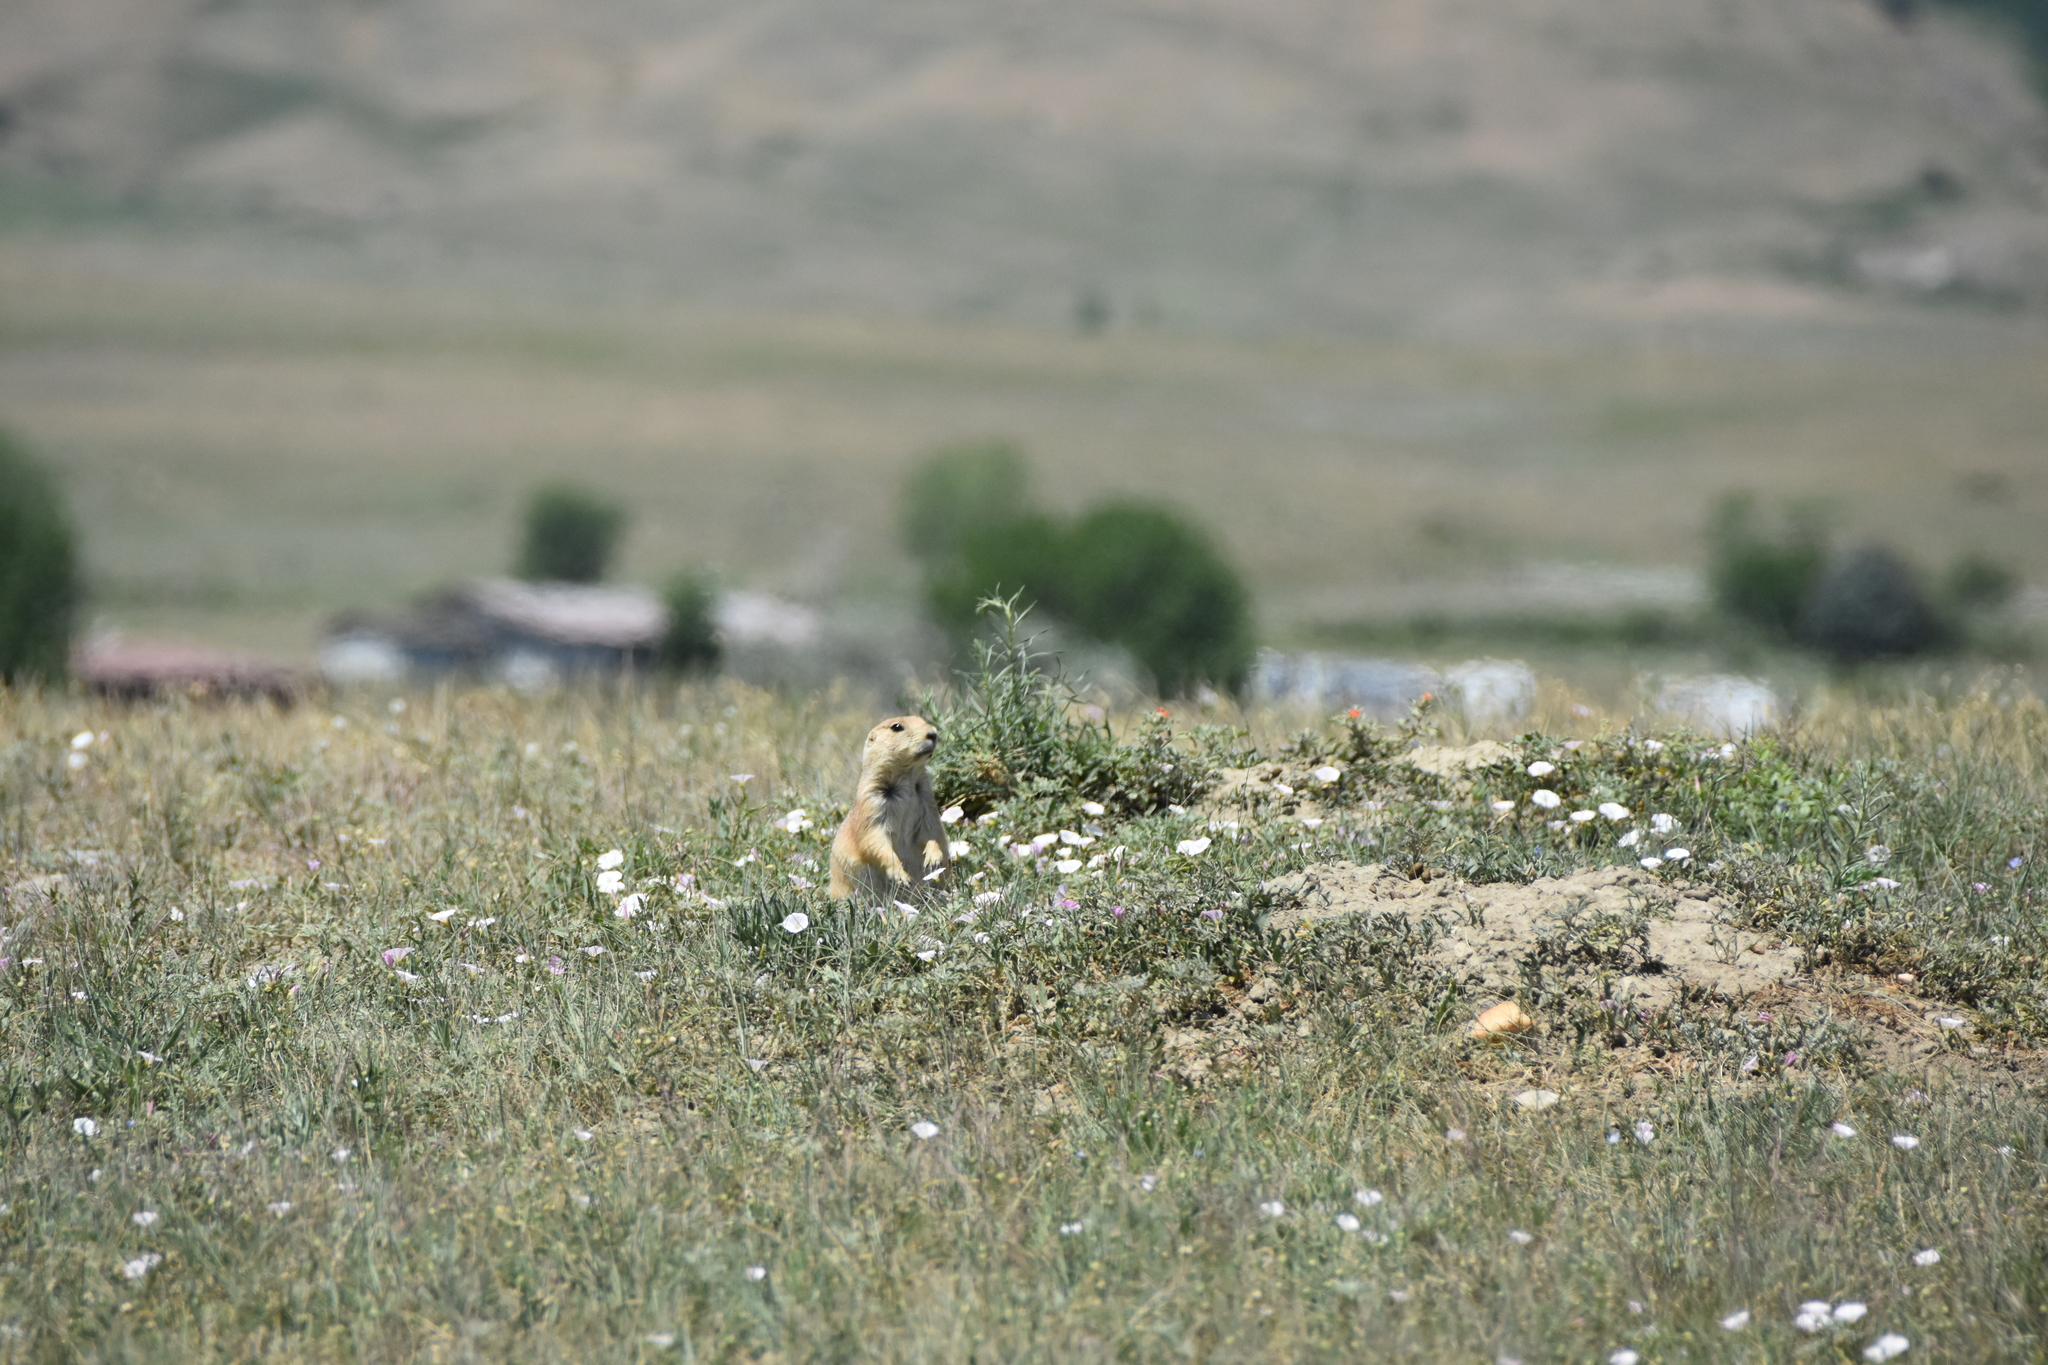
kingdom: Animalia
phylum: Chordata
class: Mammalia
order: Rodentia
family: Sciuridae
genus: Cynomys
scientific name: Cynomys ludovicianus
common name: Black-tailed prairie dog
